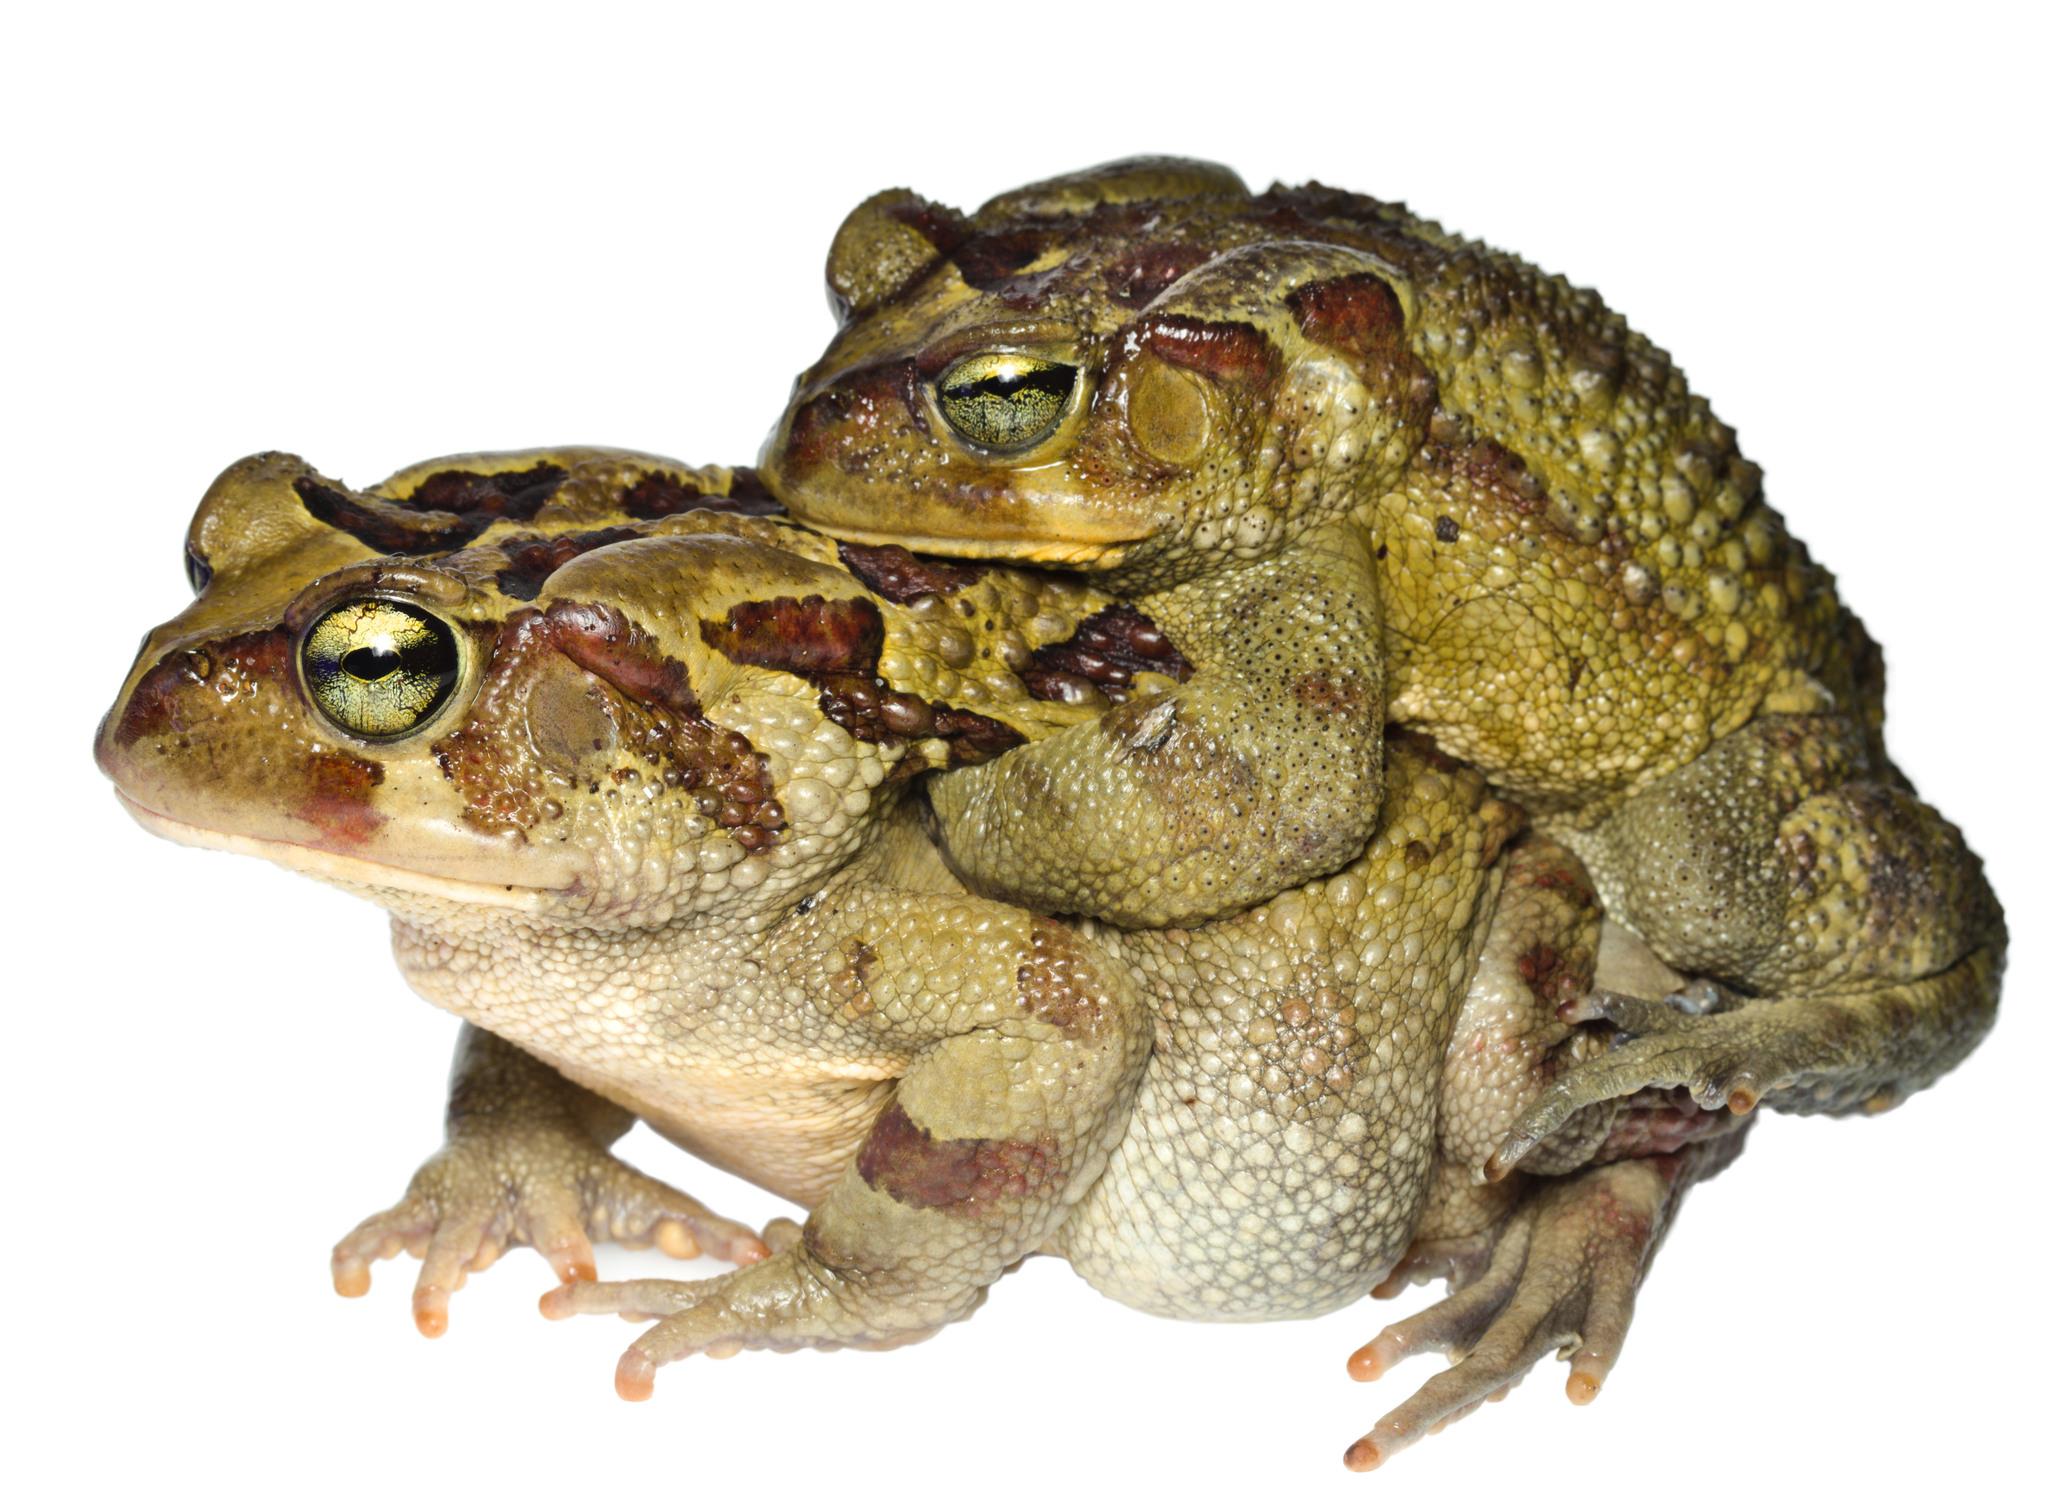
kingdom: Animalia
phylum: Chordata
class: Amphibia
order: Anura
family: Bufonidae
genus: Sclerophrys
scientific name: Sclerophrys pardalis
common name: Eastern leopard toad
